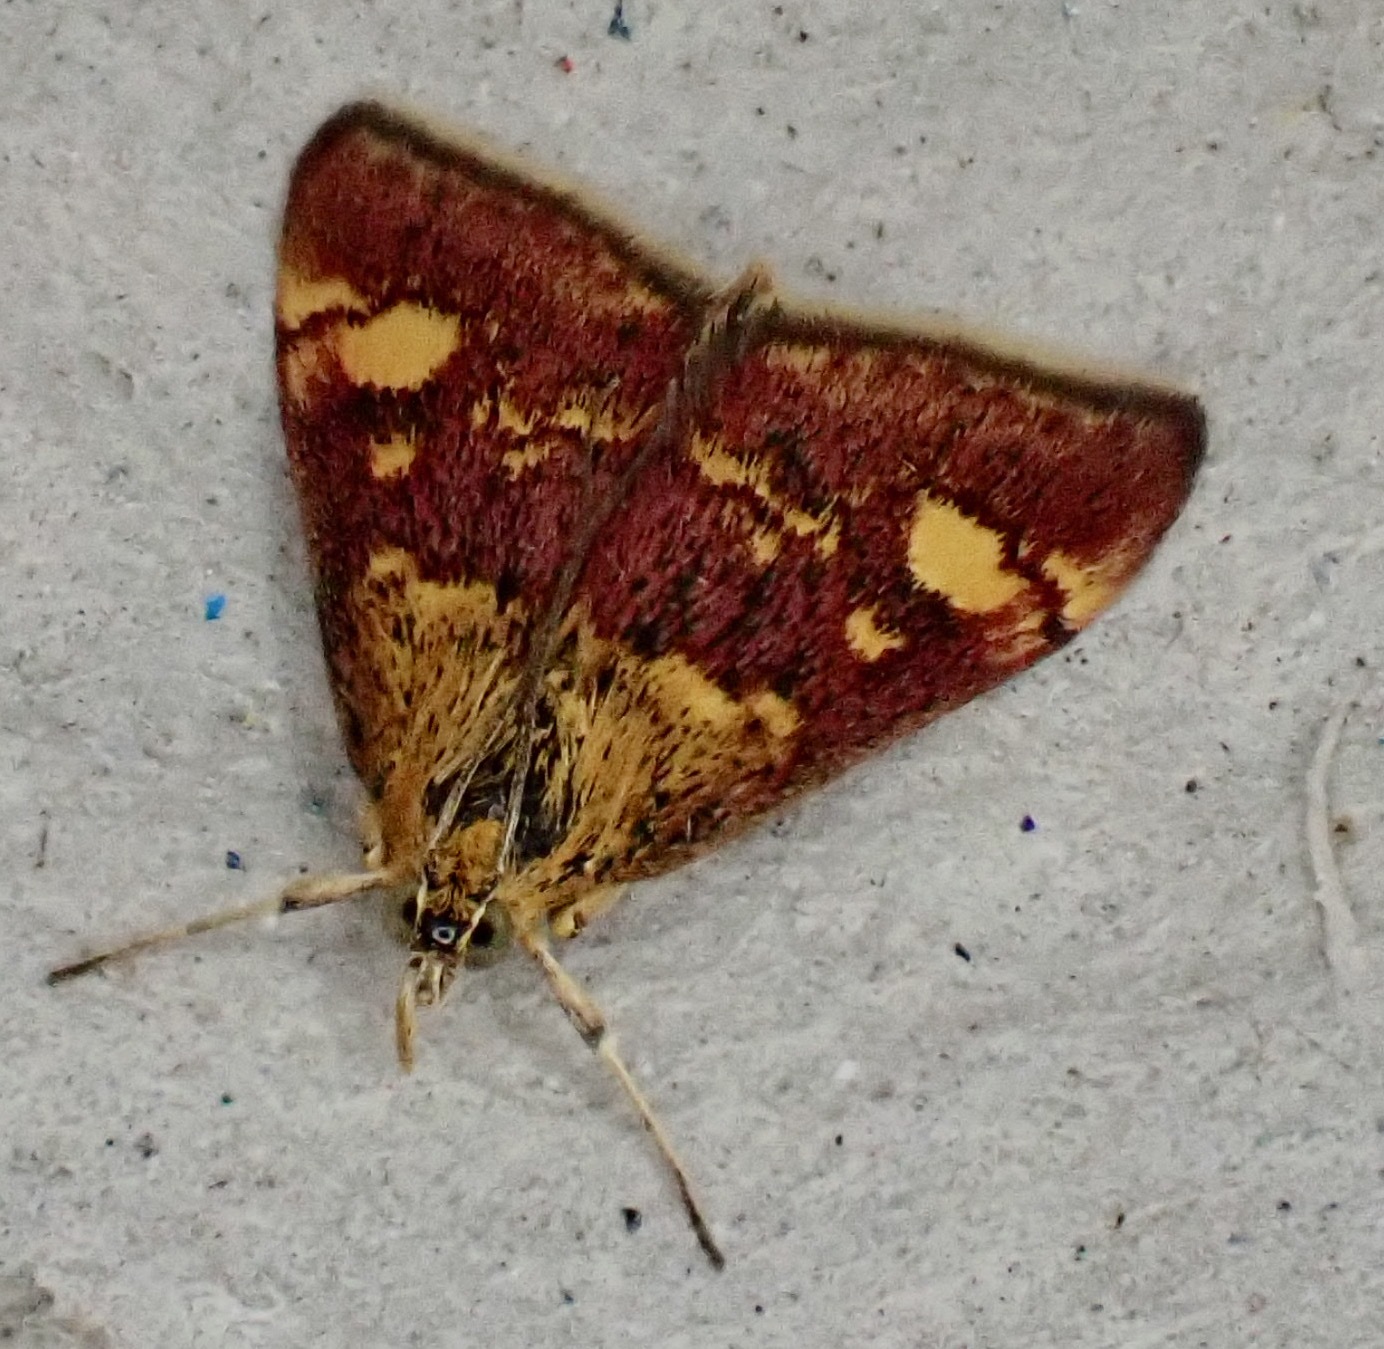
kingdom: Animalia
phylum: Arthropoda
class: Insecta
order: Lepidoptera
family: Crambidae
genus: Pyrausta
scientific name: Pyrausta aurata
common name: Small purple & gold
